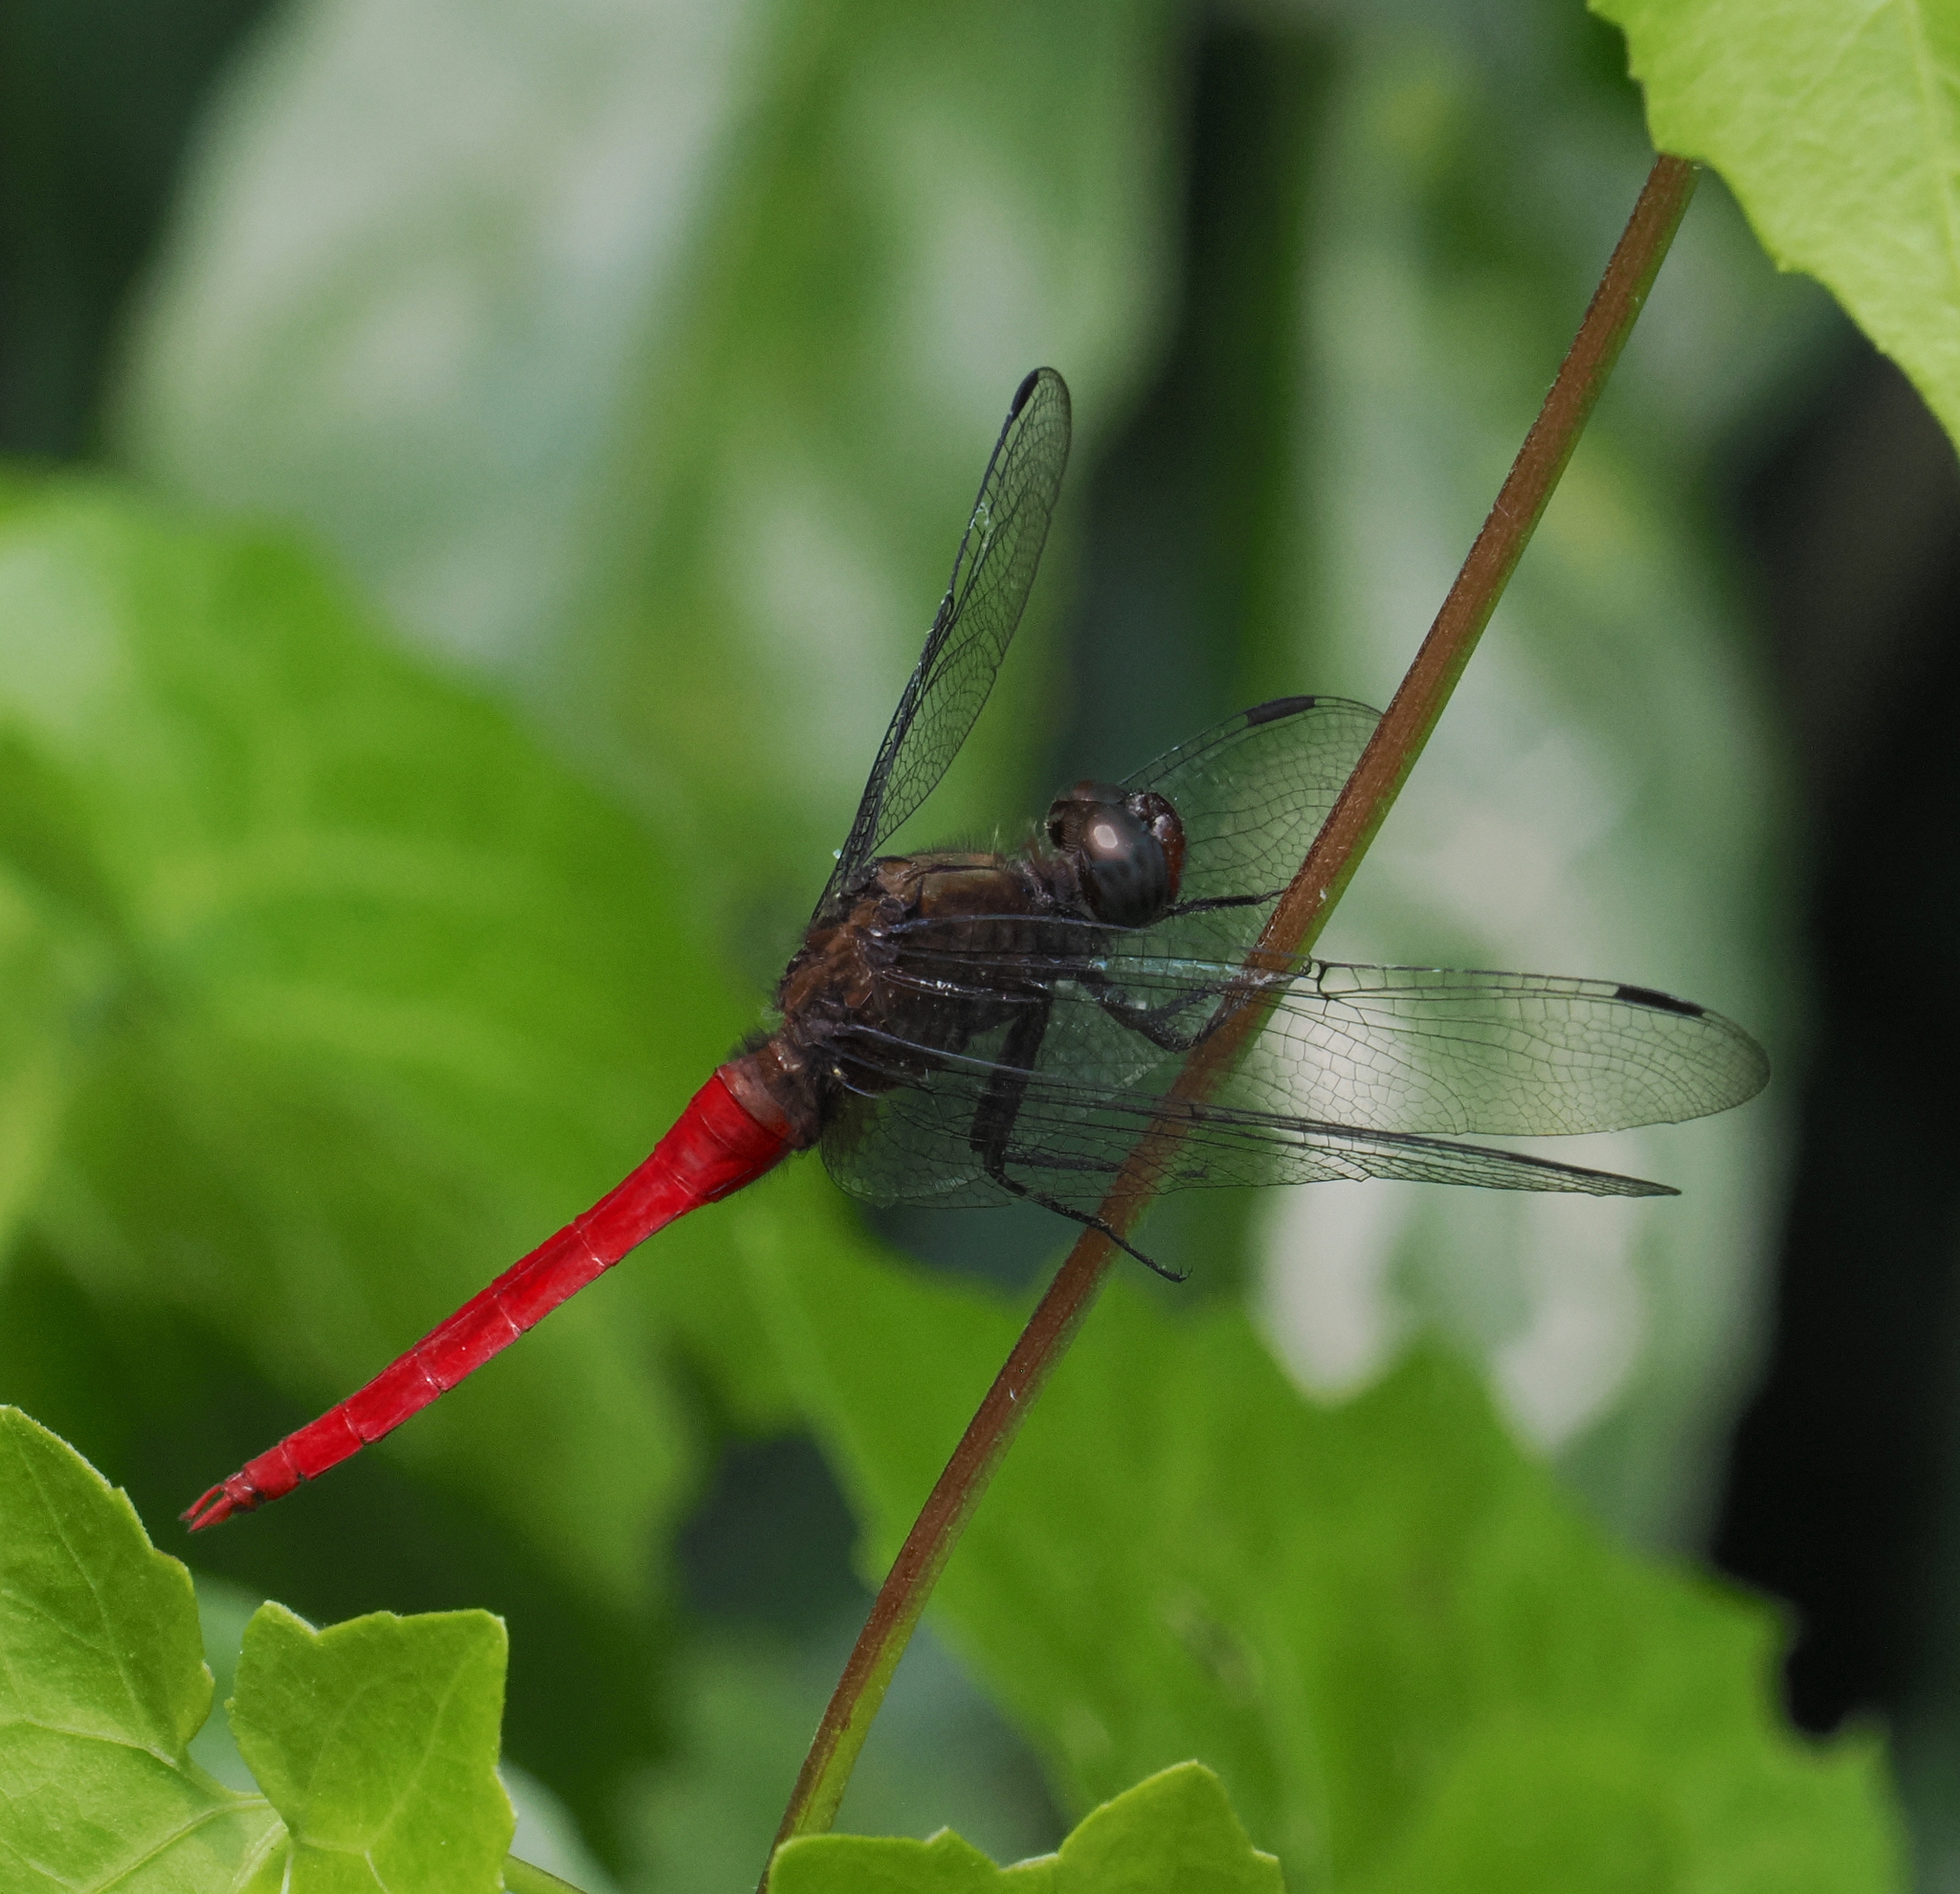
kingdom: Animalia
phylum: Arthropoda
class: Insecta
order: Odonata
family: Libellulidae
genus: Orthetrum
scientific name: Orthetrum chrysis
